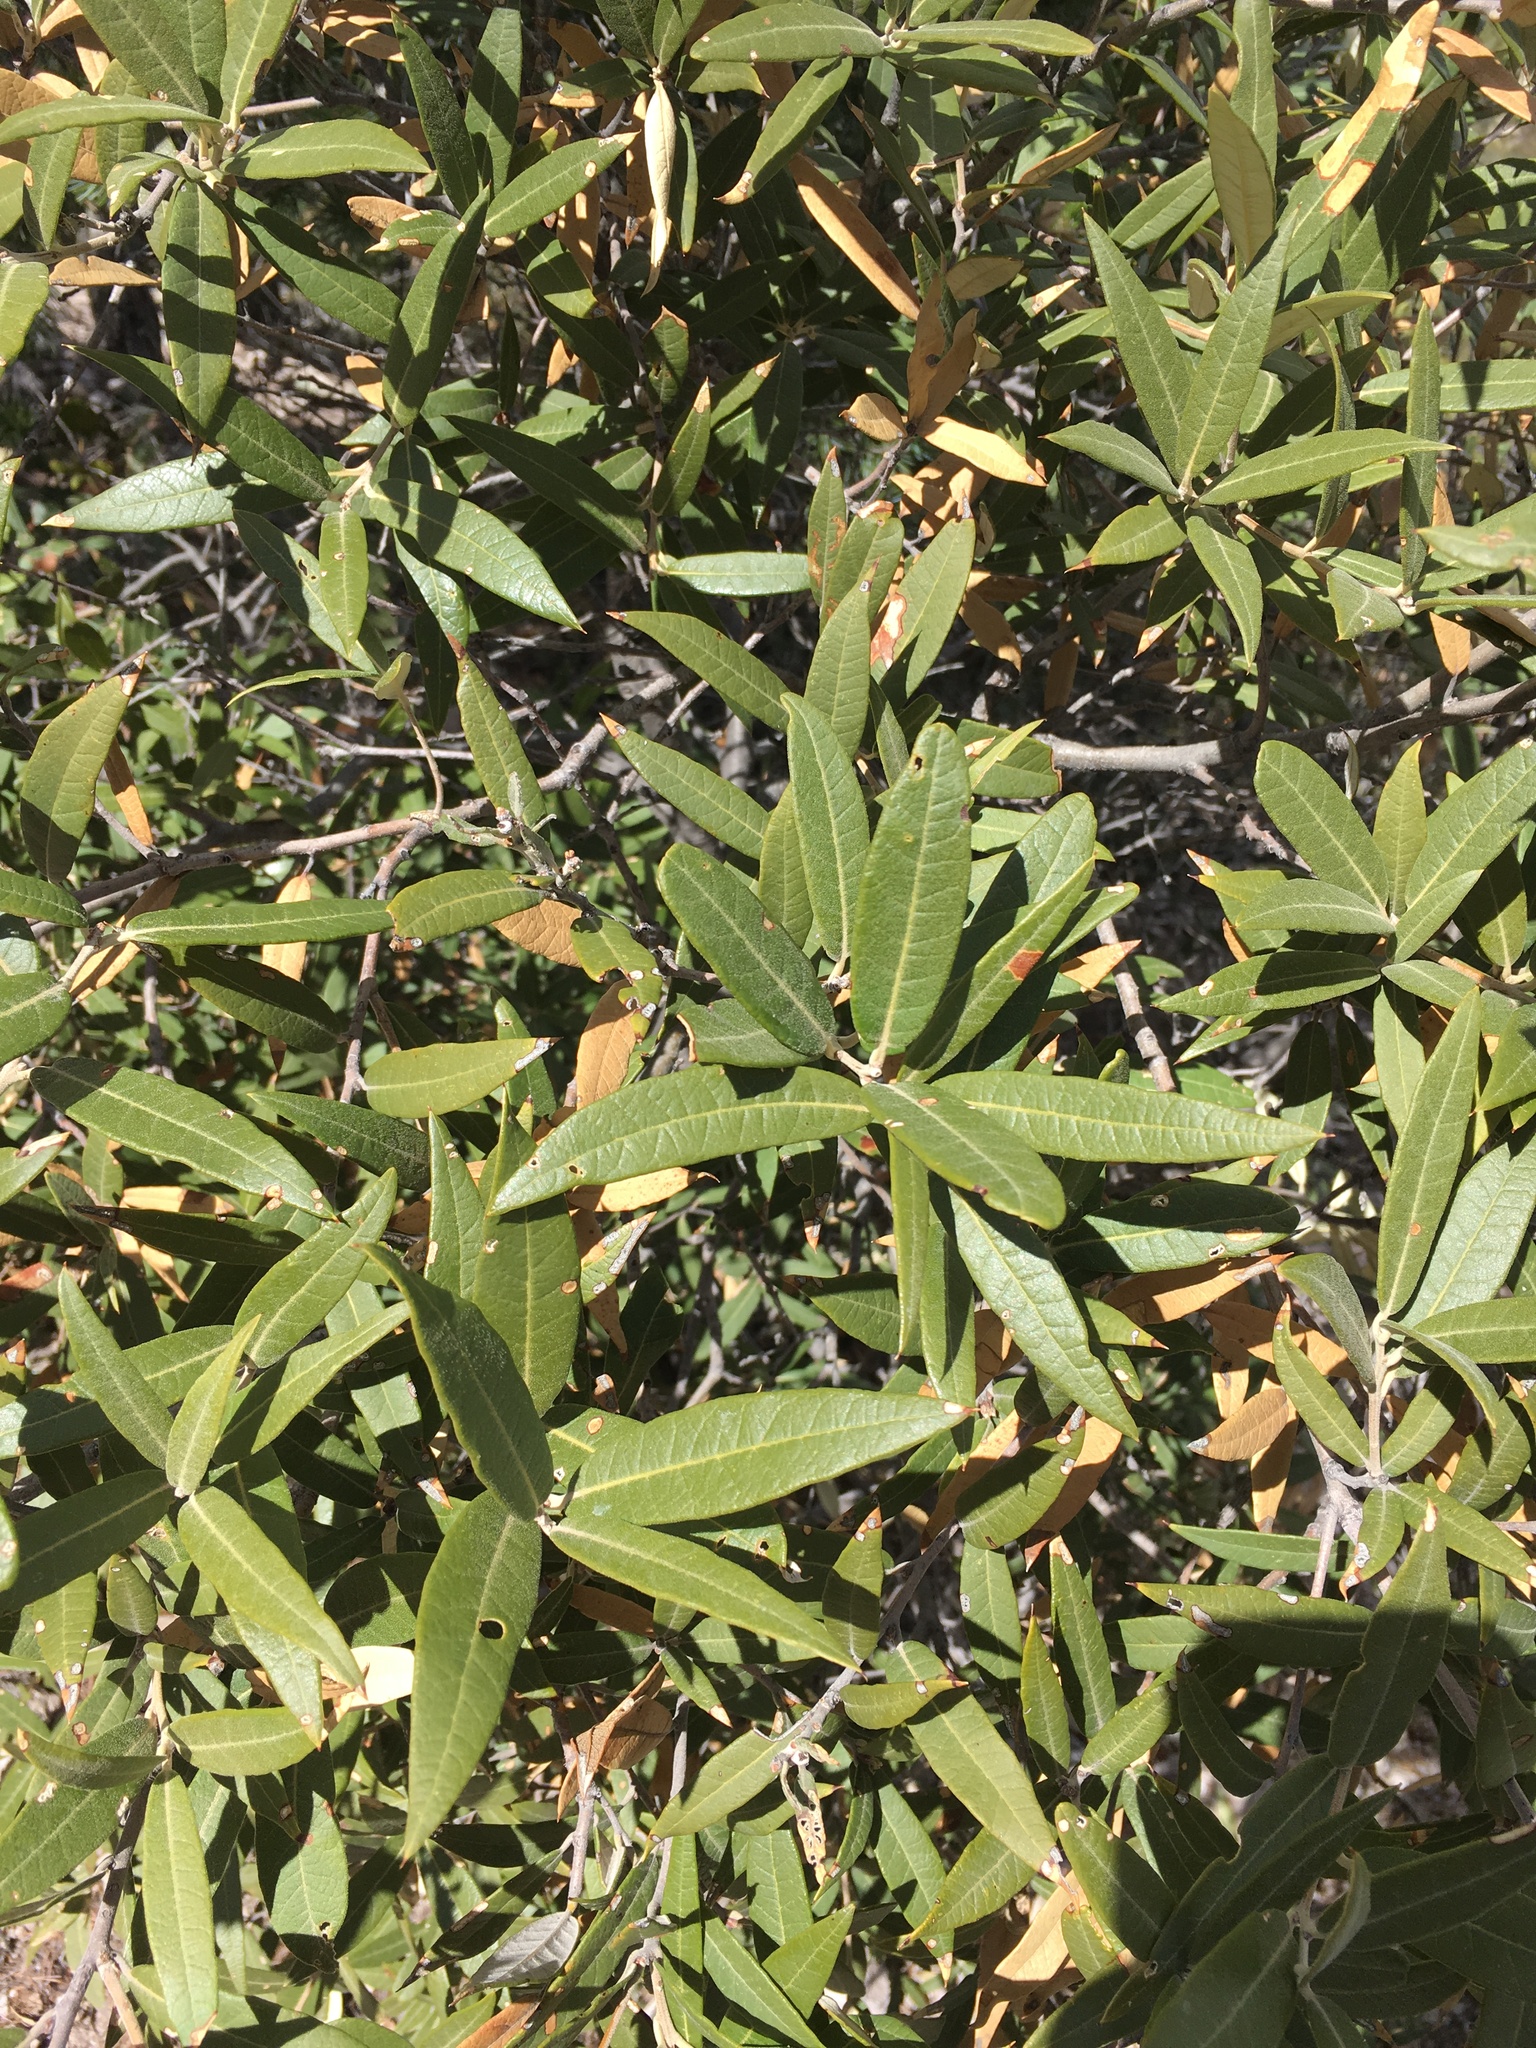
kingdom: Plantae
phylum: Tracheophyta
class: Magnoliopsida
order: Fagales
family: Fagaceae
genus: Quercus
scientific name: Quercus hypoleucoides
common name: Silverleaf oak
